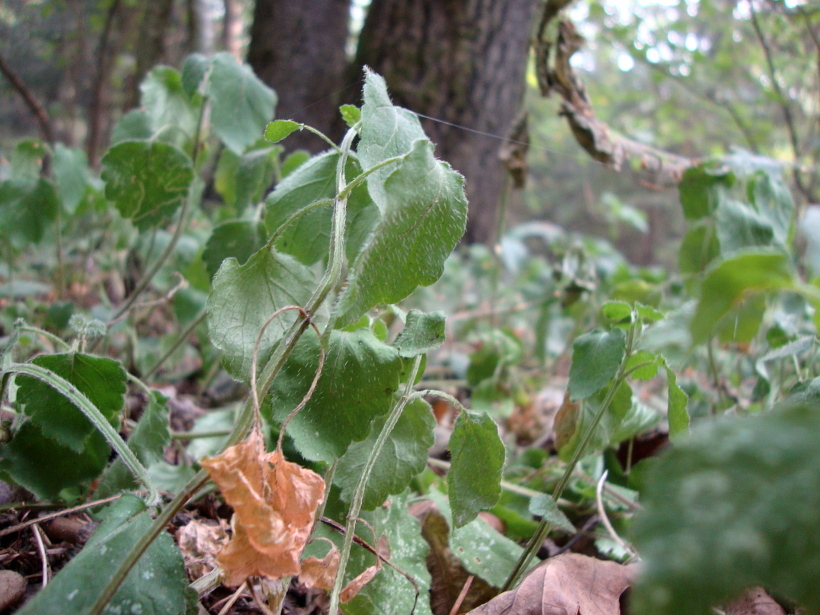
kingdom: Plantae
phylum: Tracheophyta
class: Magnoliopsida
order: Lamiales
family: Lamiaceae
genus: Lamium
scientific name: Lamium galeobdolon
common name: Yellow archangel
